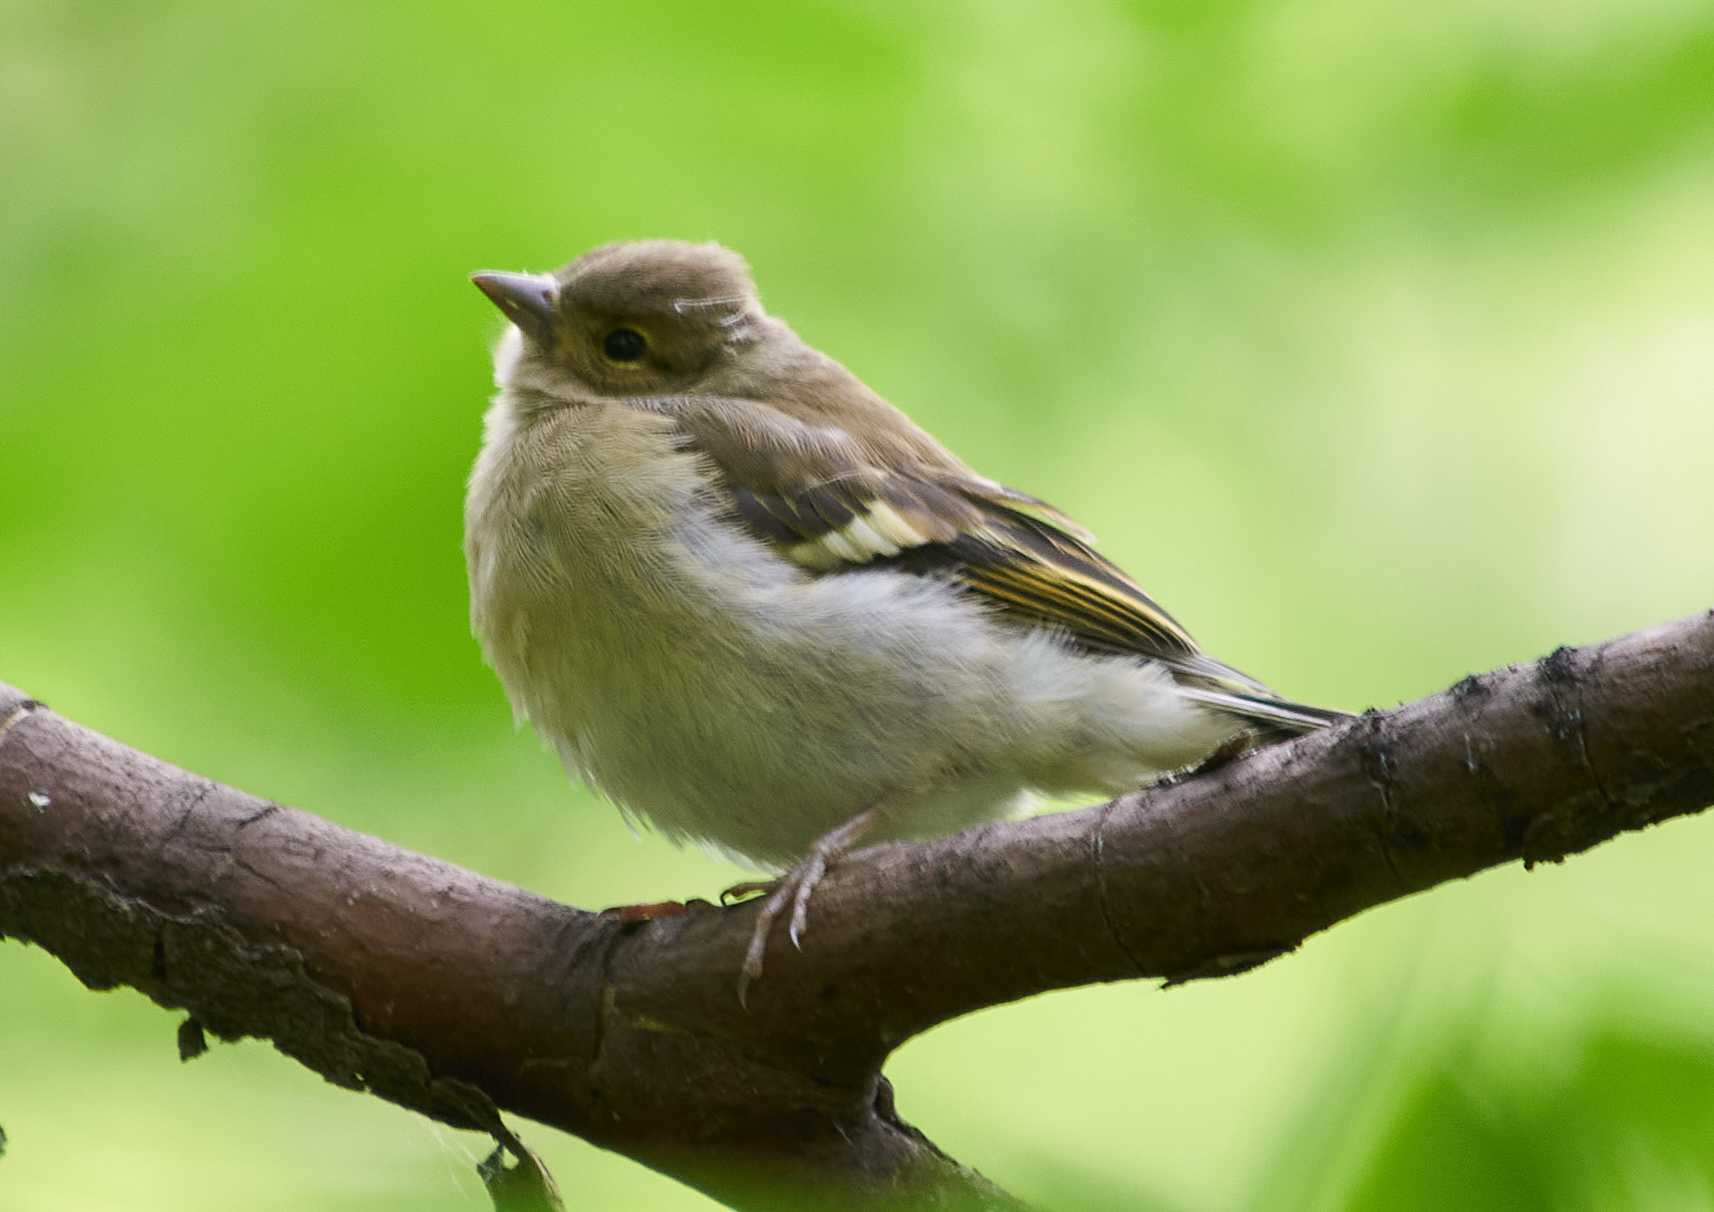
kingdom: Animalia
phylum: Chordata
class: Aves
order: Passeriformes
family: Fringillidae
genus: Fringilla
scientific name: Fringilla coelebs
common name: Common chaffinch
